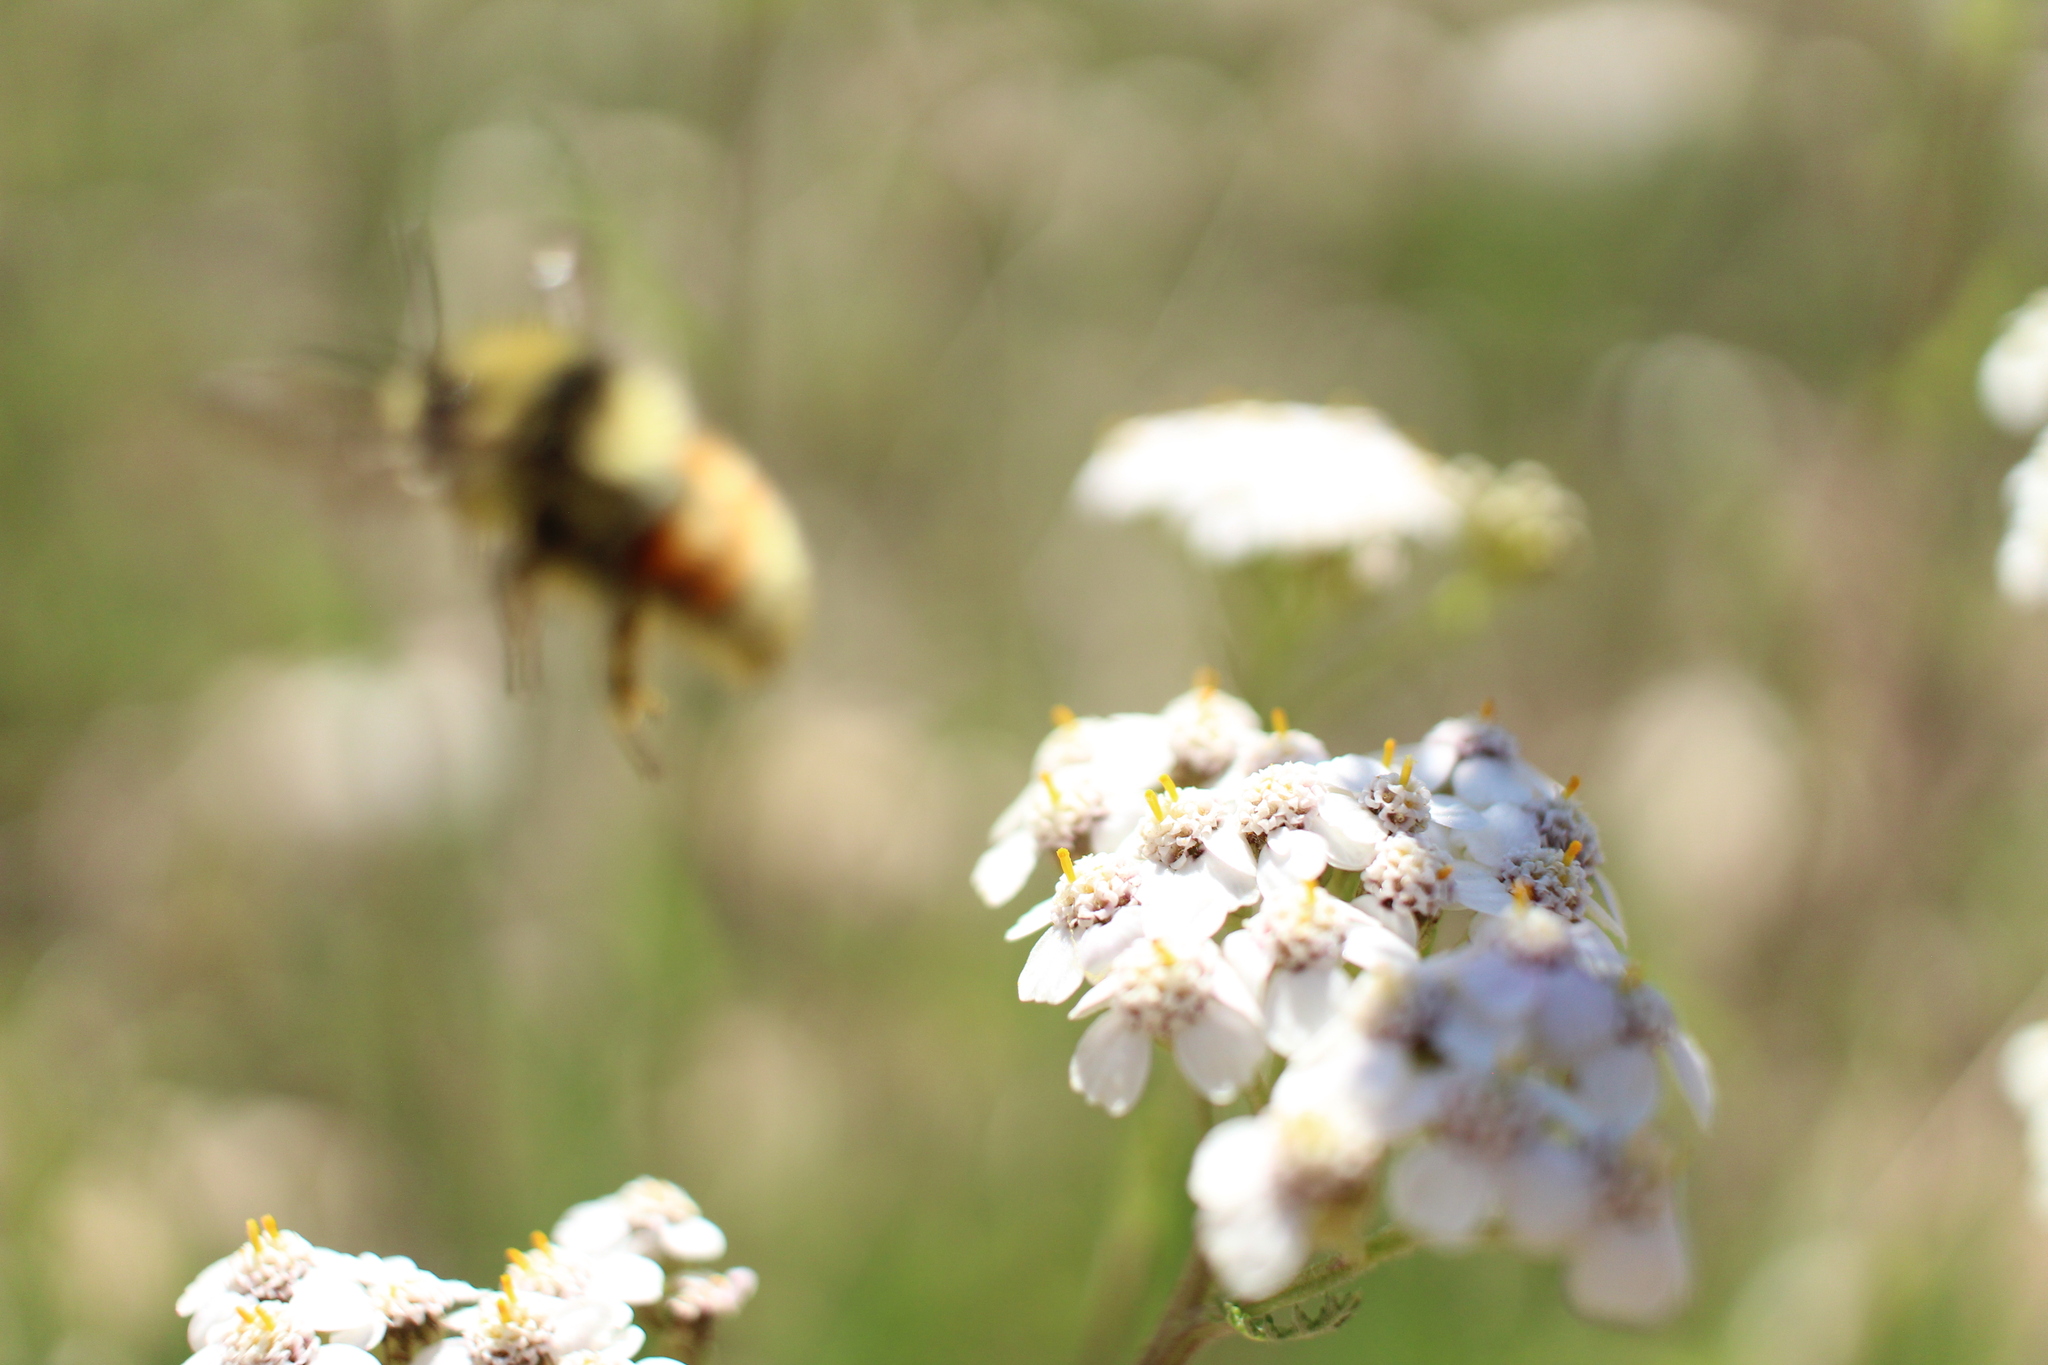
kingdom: Plantae
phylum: Tracheophyta
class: Magnoliopsida
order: Asterales
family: Asteraceae
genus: Achillea
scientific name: Achillea millefolium
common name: Yarrow
